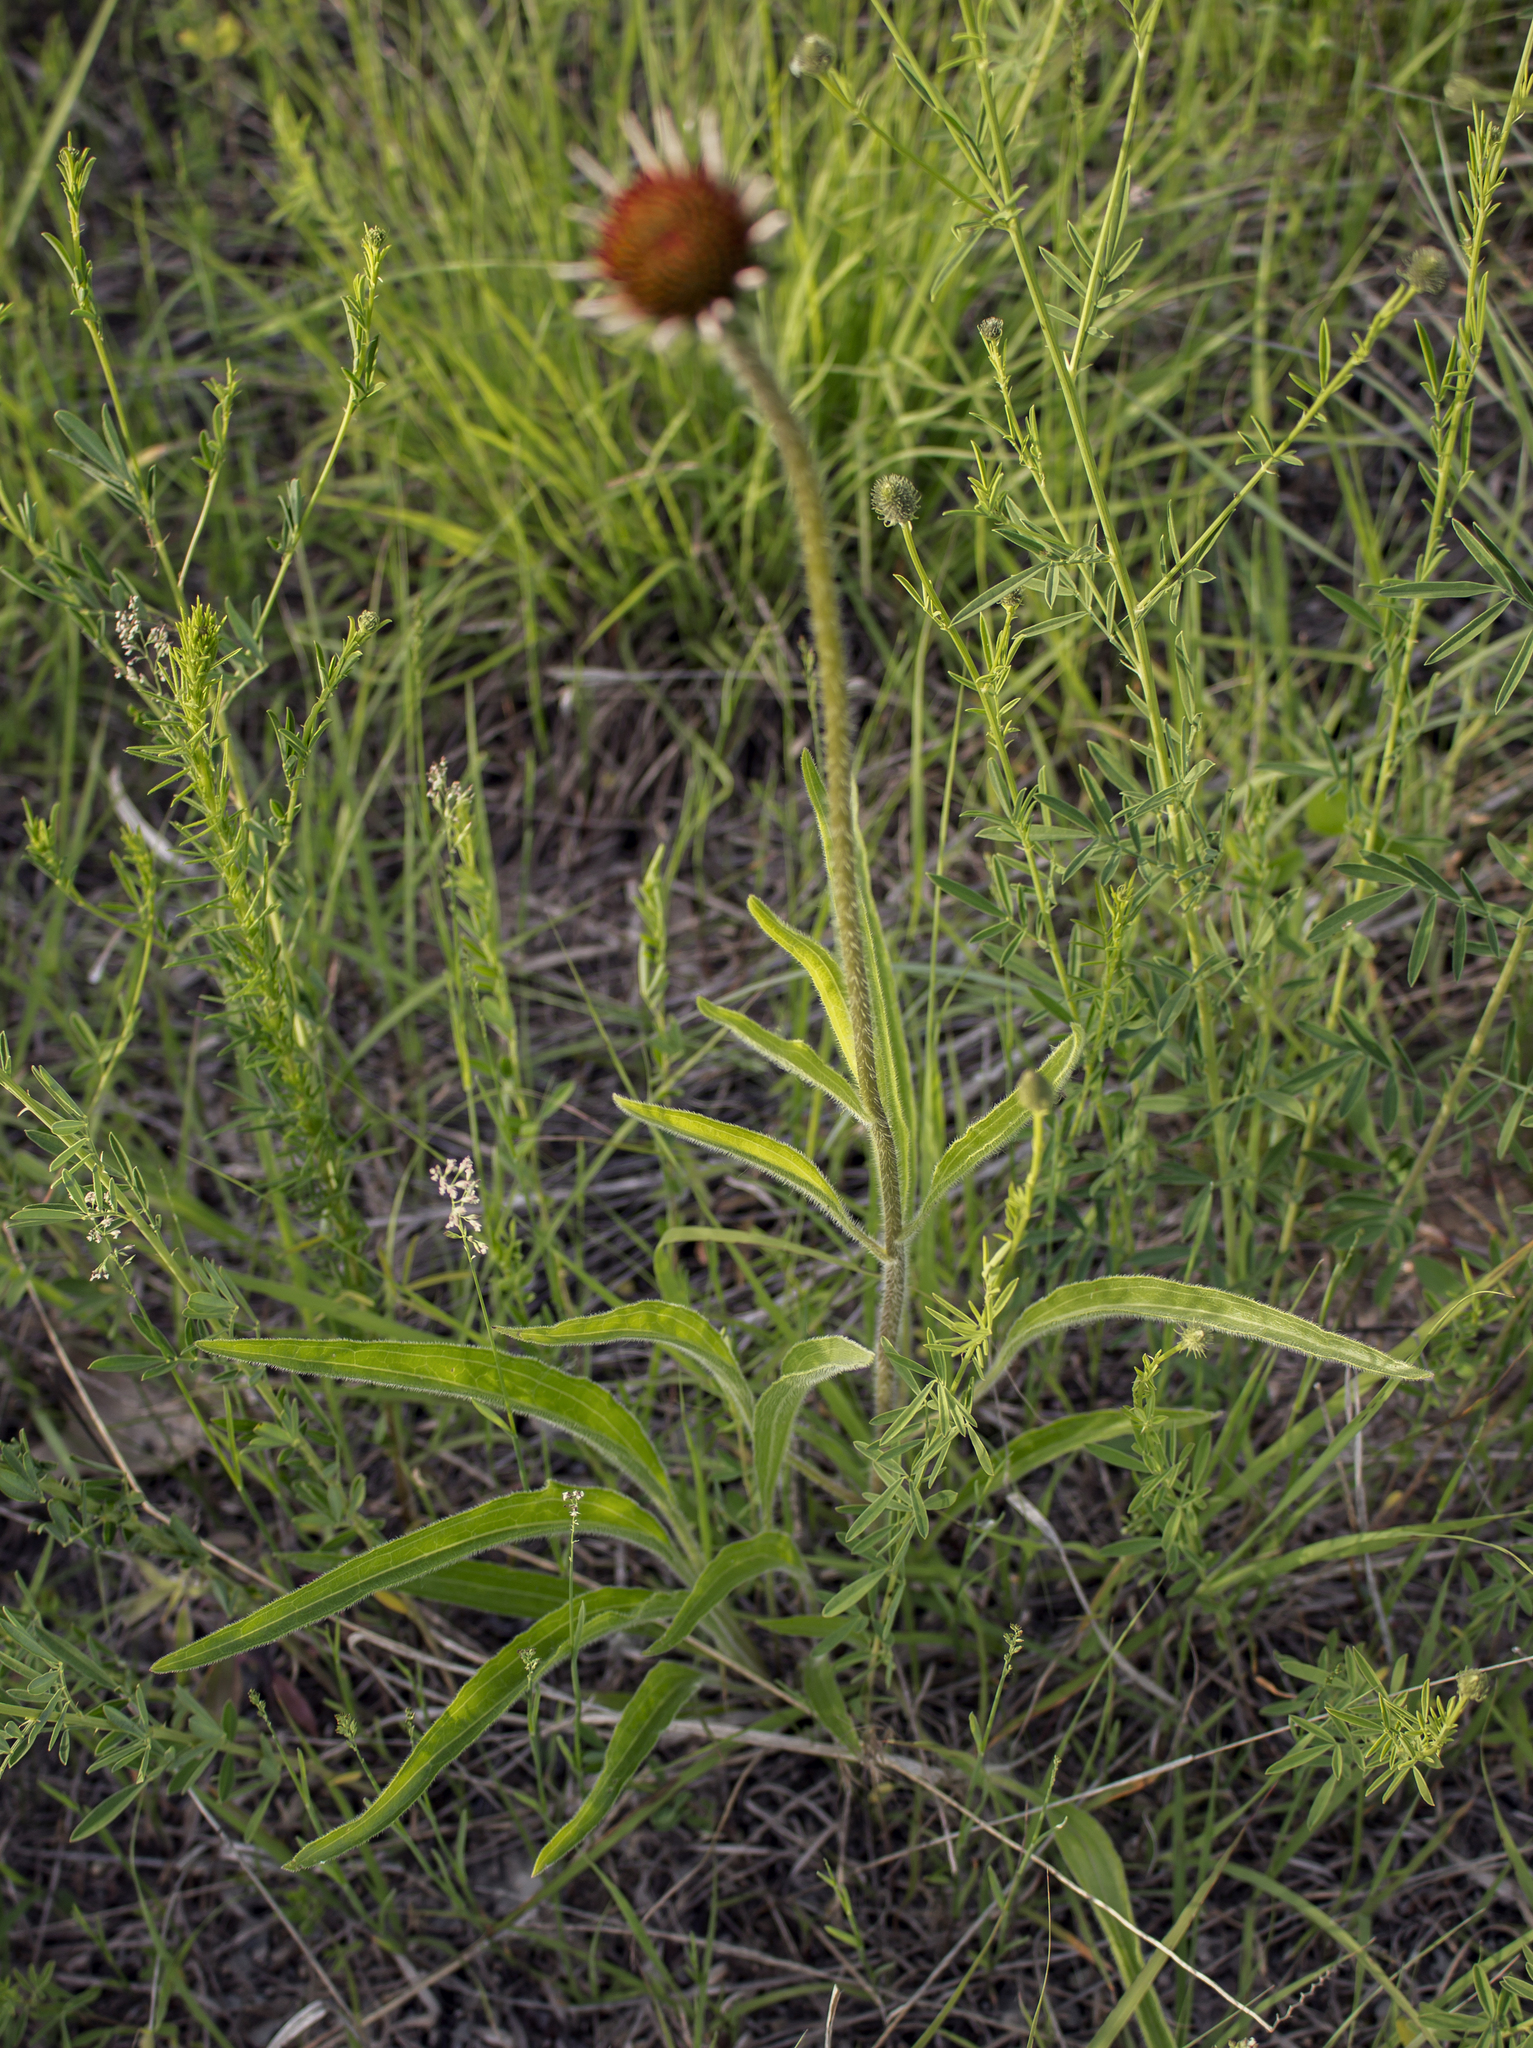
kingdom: Plantae
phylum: Tracheophyta
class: Magnoliopsida
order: Asterales
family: Asteraceae
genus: Echinacea
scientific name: Echinacea pallida
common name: Pale echinacea
